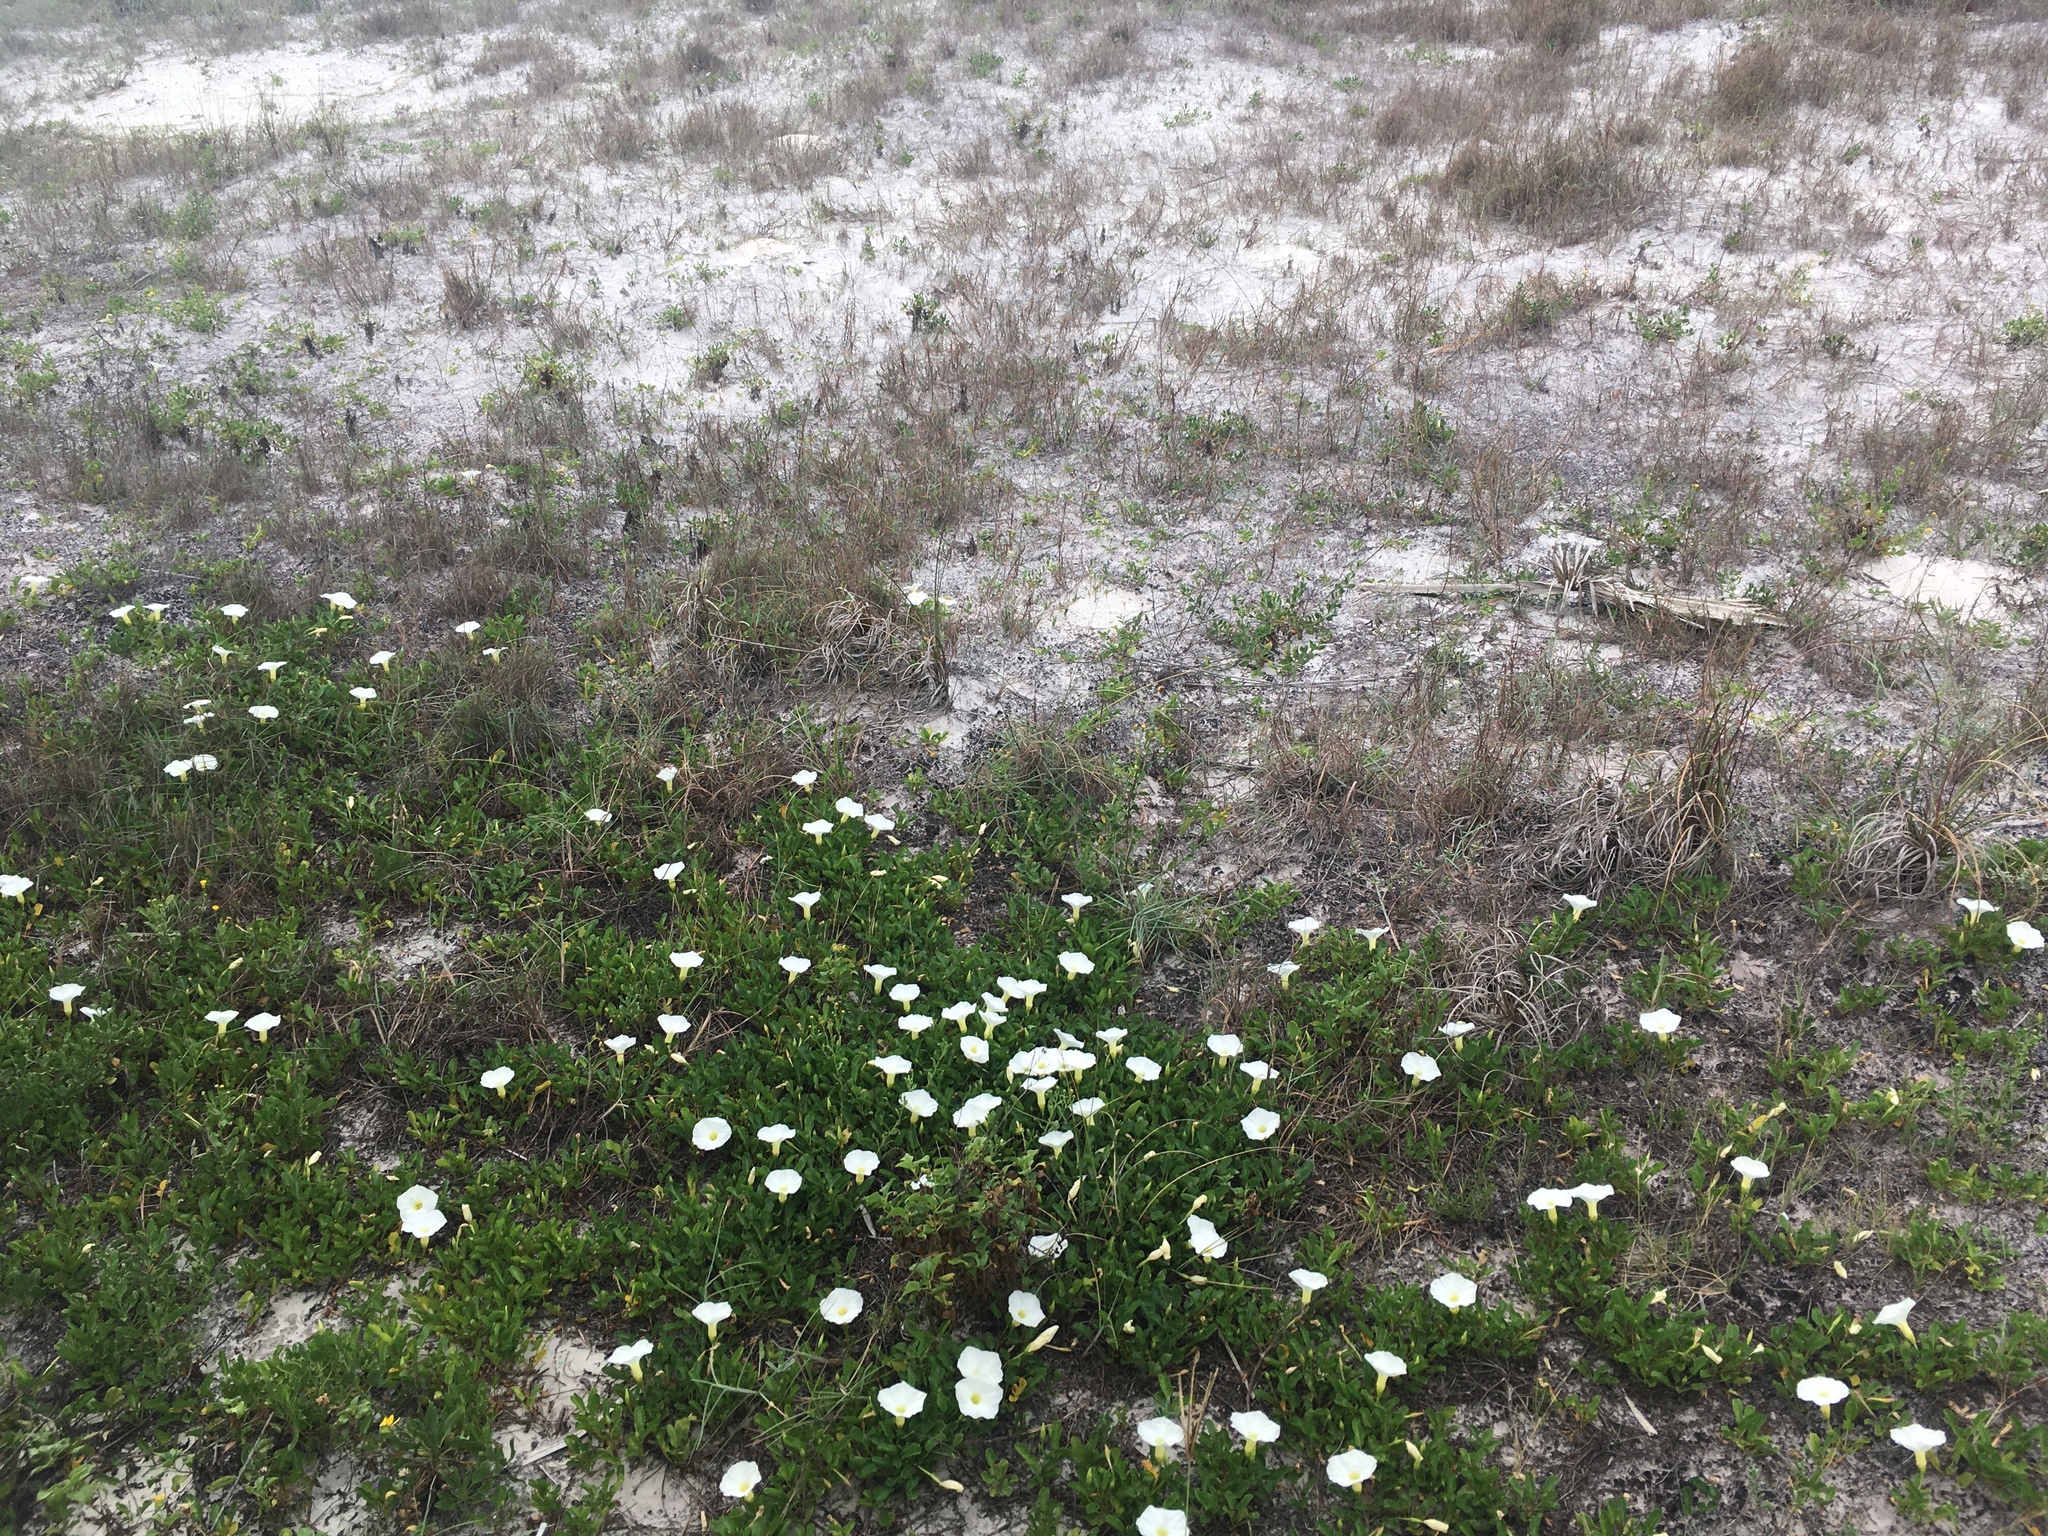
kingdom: Plantae
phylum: Tracheophyta
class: Magnoliopsida
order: Solanales
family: Convolvulaceae
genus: Ipomoea
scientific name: Ipomoea imperati
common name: Fiddle-leaf morning-glory
